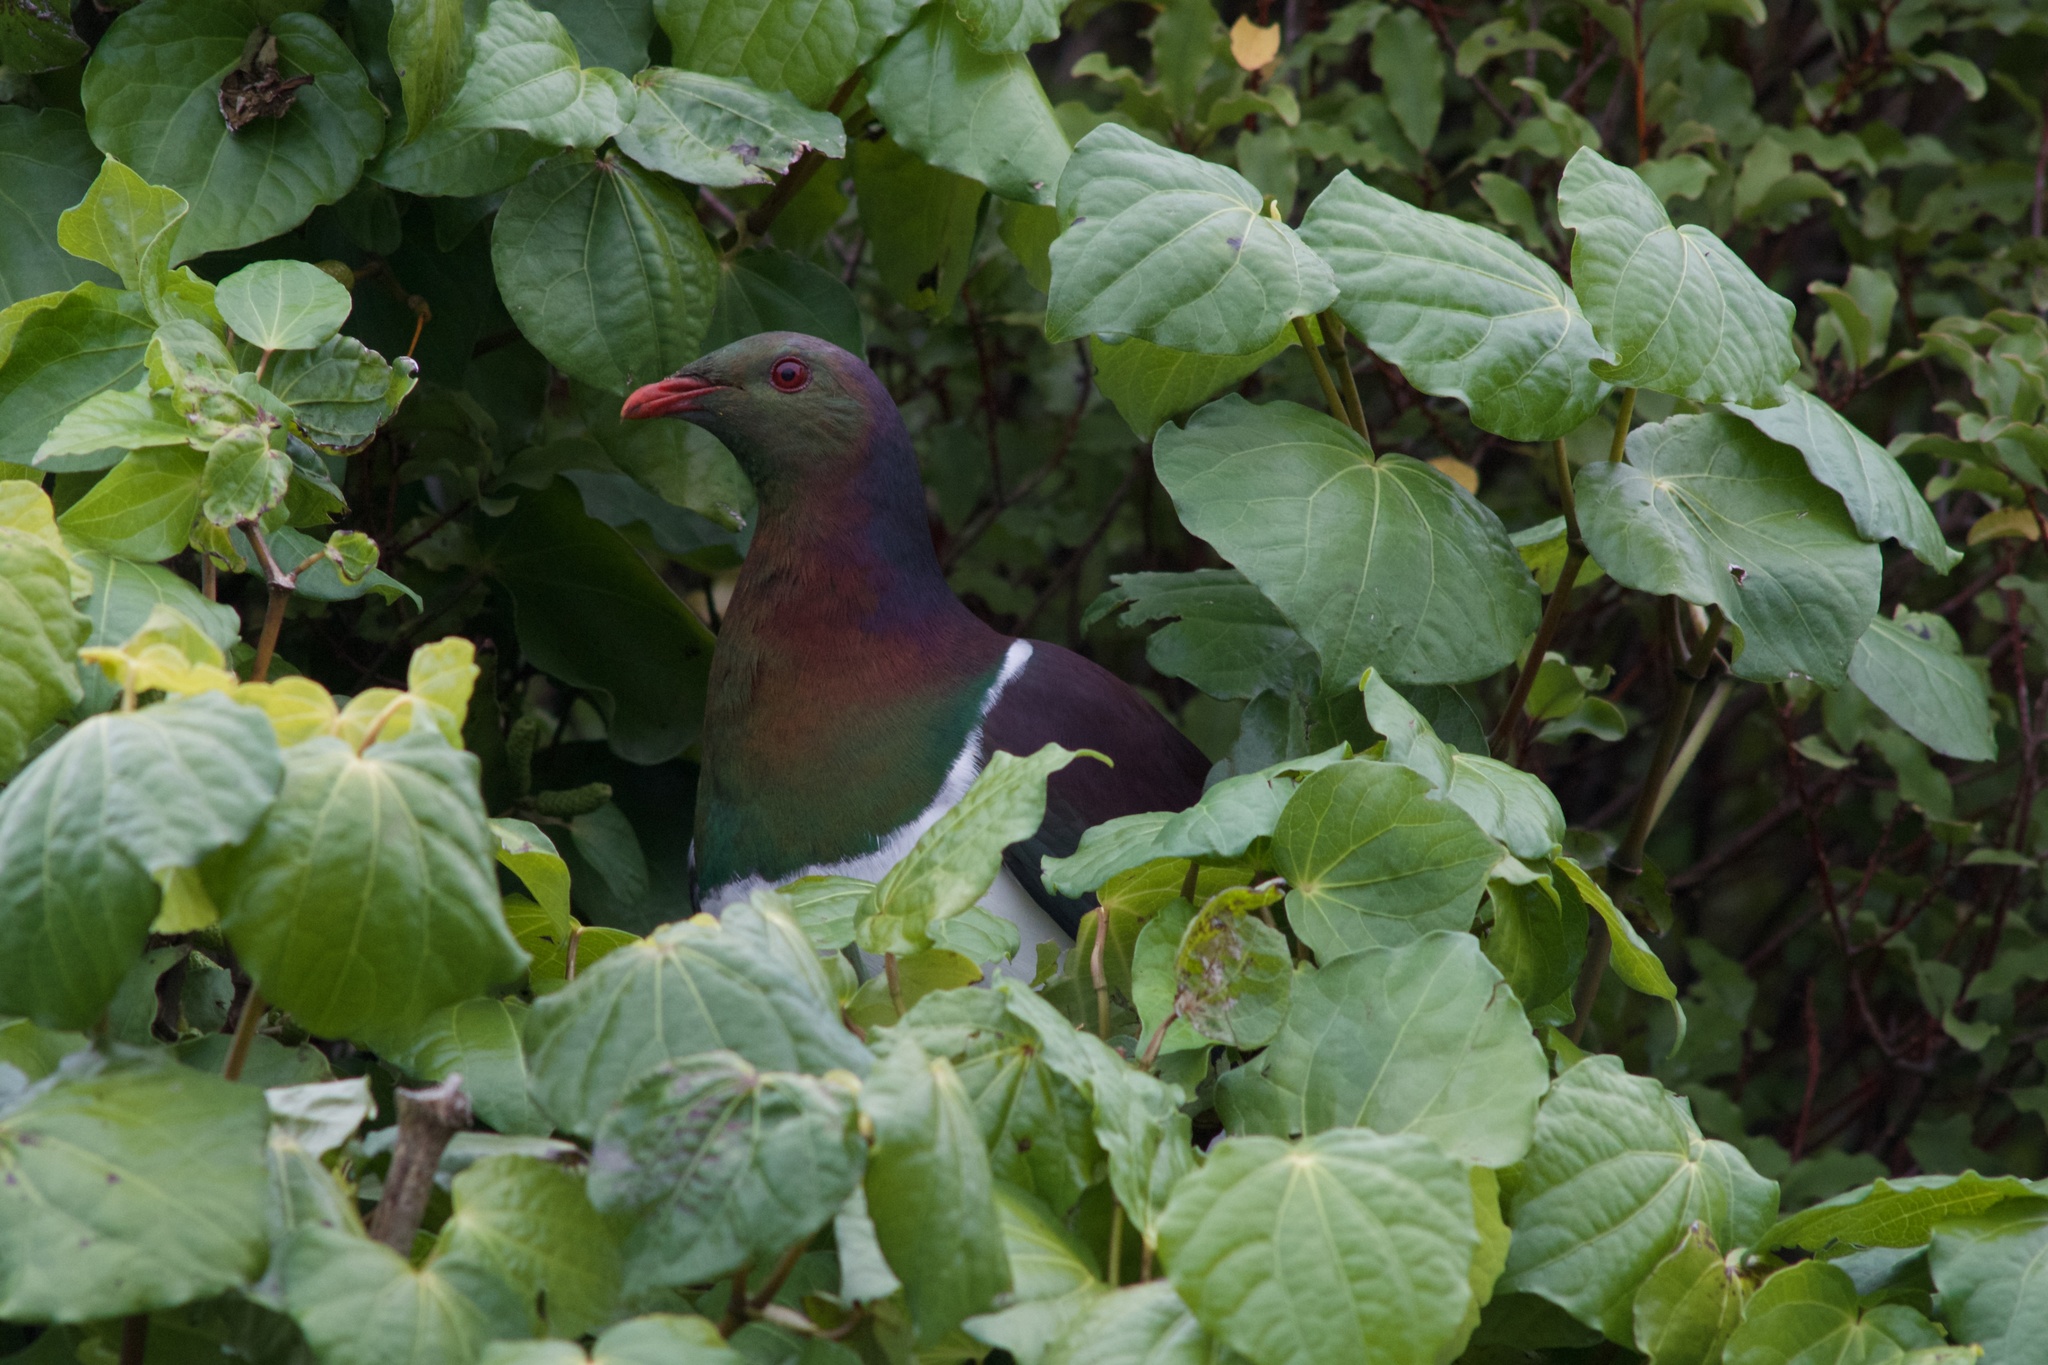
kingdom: Animalia
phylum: Chordata
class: Aves
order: Columbiformes
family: Columbidae
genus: Hemiphaga
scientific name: Hemiphaga novaeseelandiae
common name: New zealand pigeon
